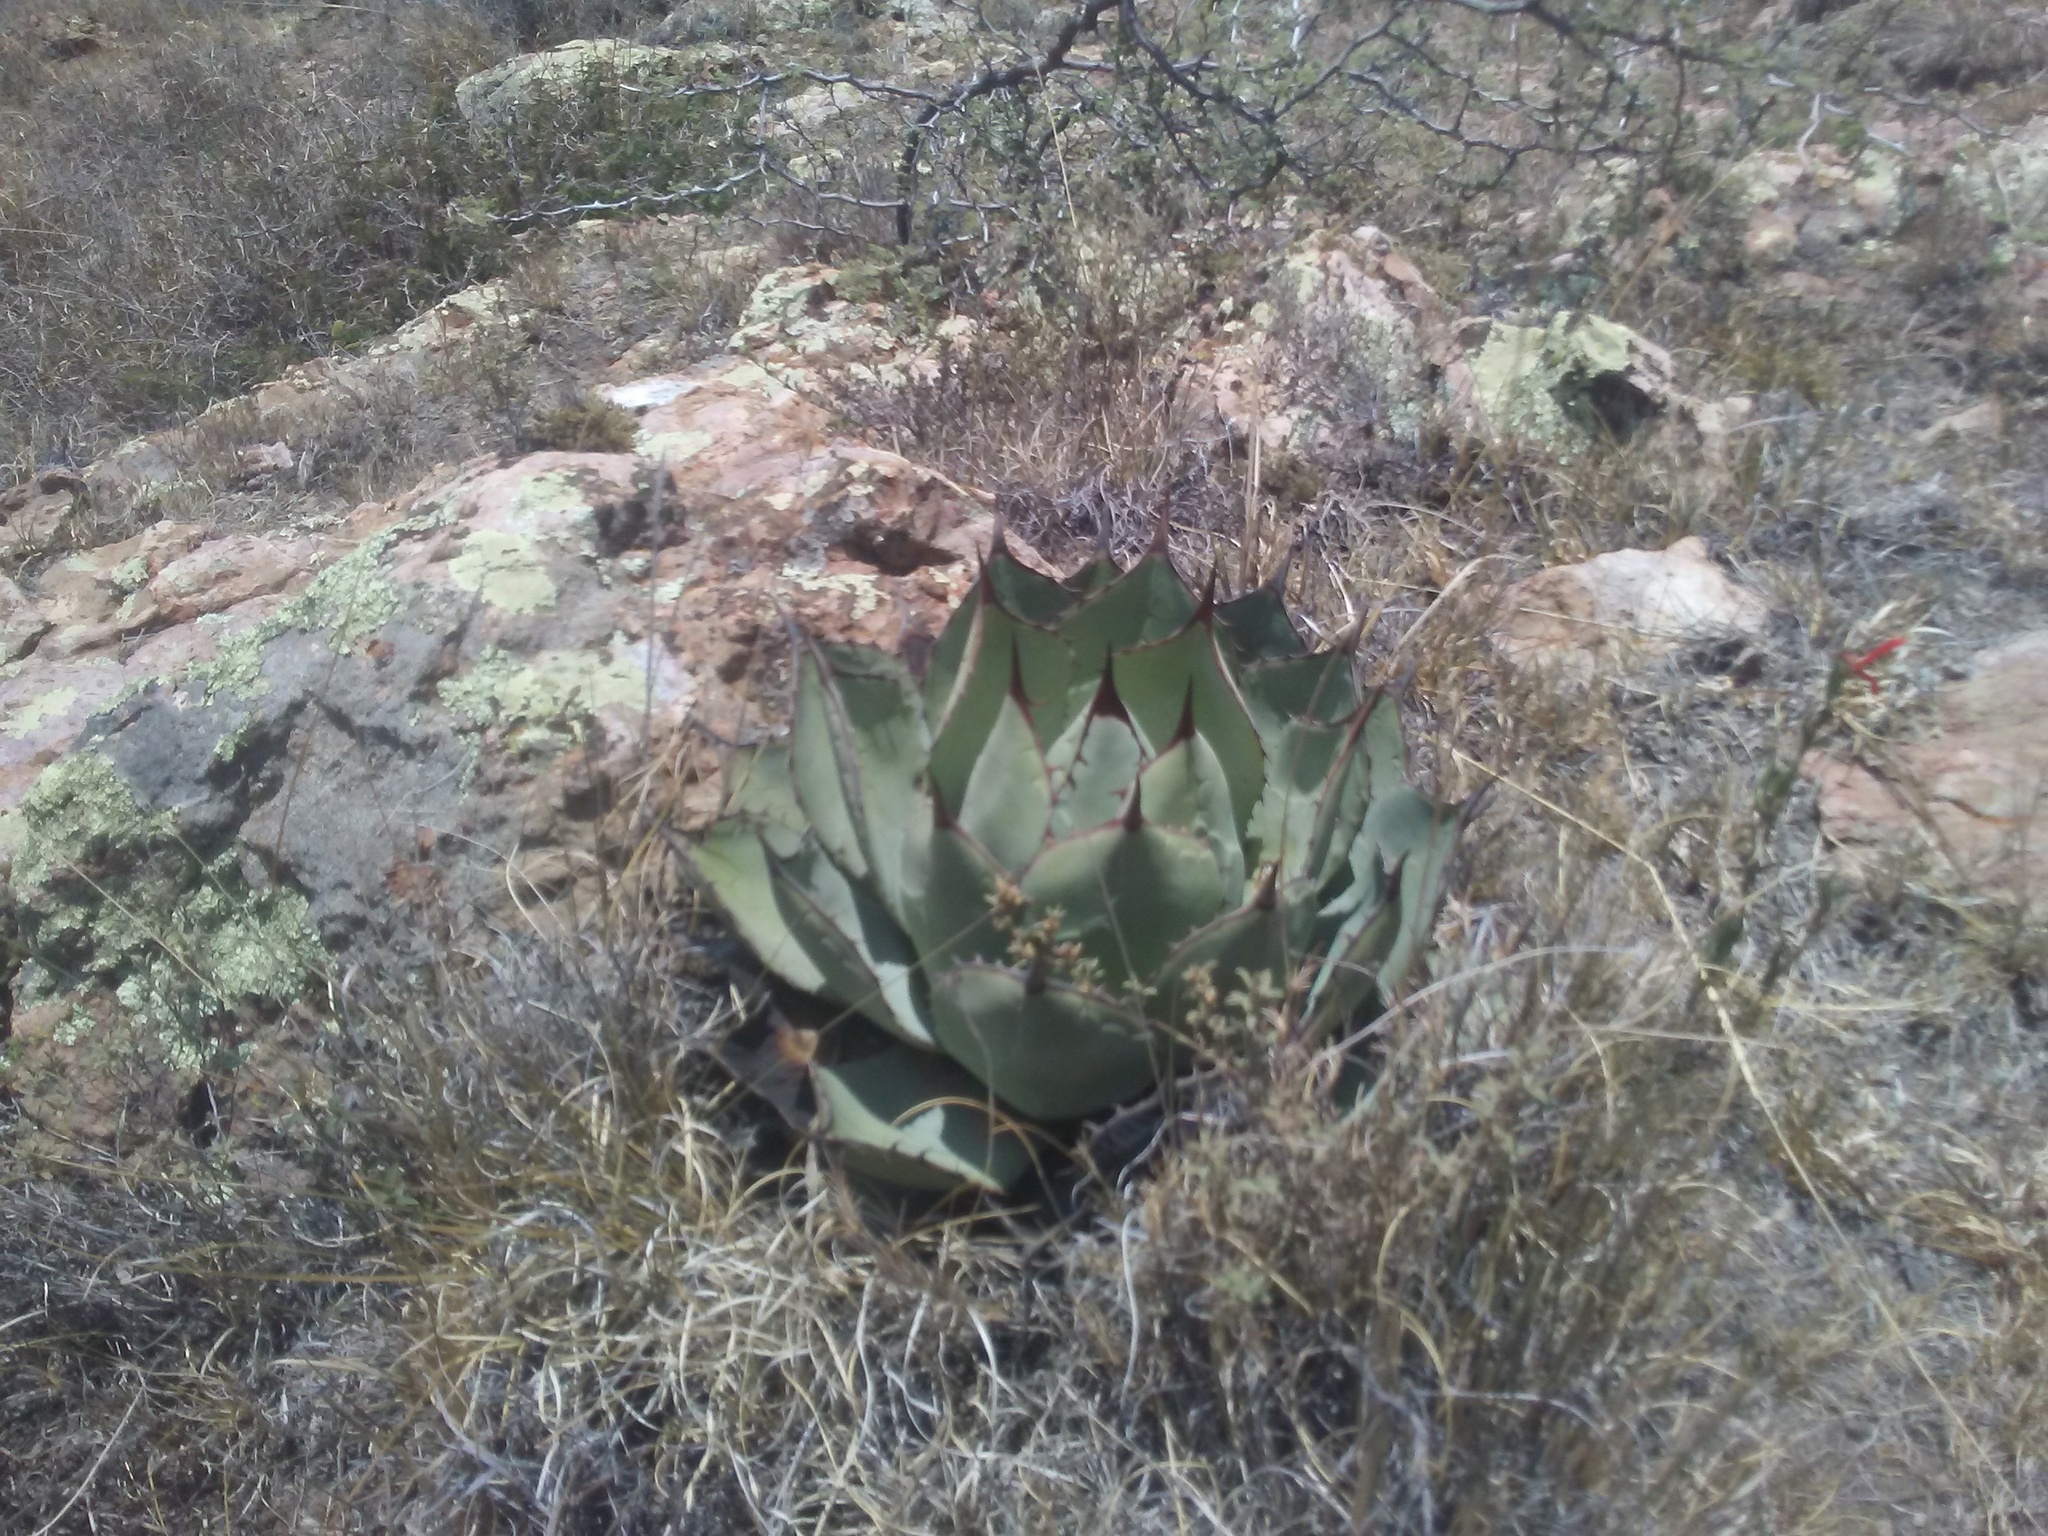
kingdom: Plantae
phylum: Tracheophyta
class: Liliopsida
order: Asparagales
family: Asparagaceae
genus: Agave
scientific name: Agave parryi
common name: Parry's agave
